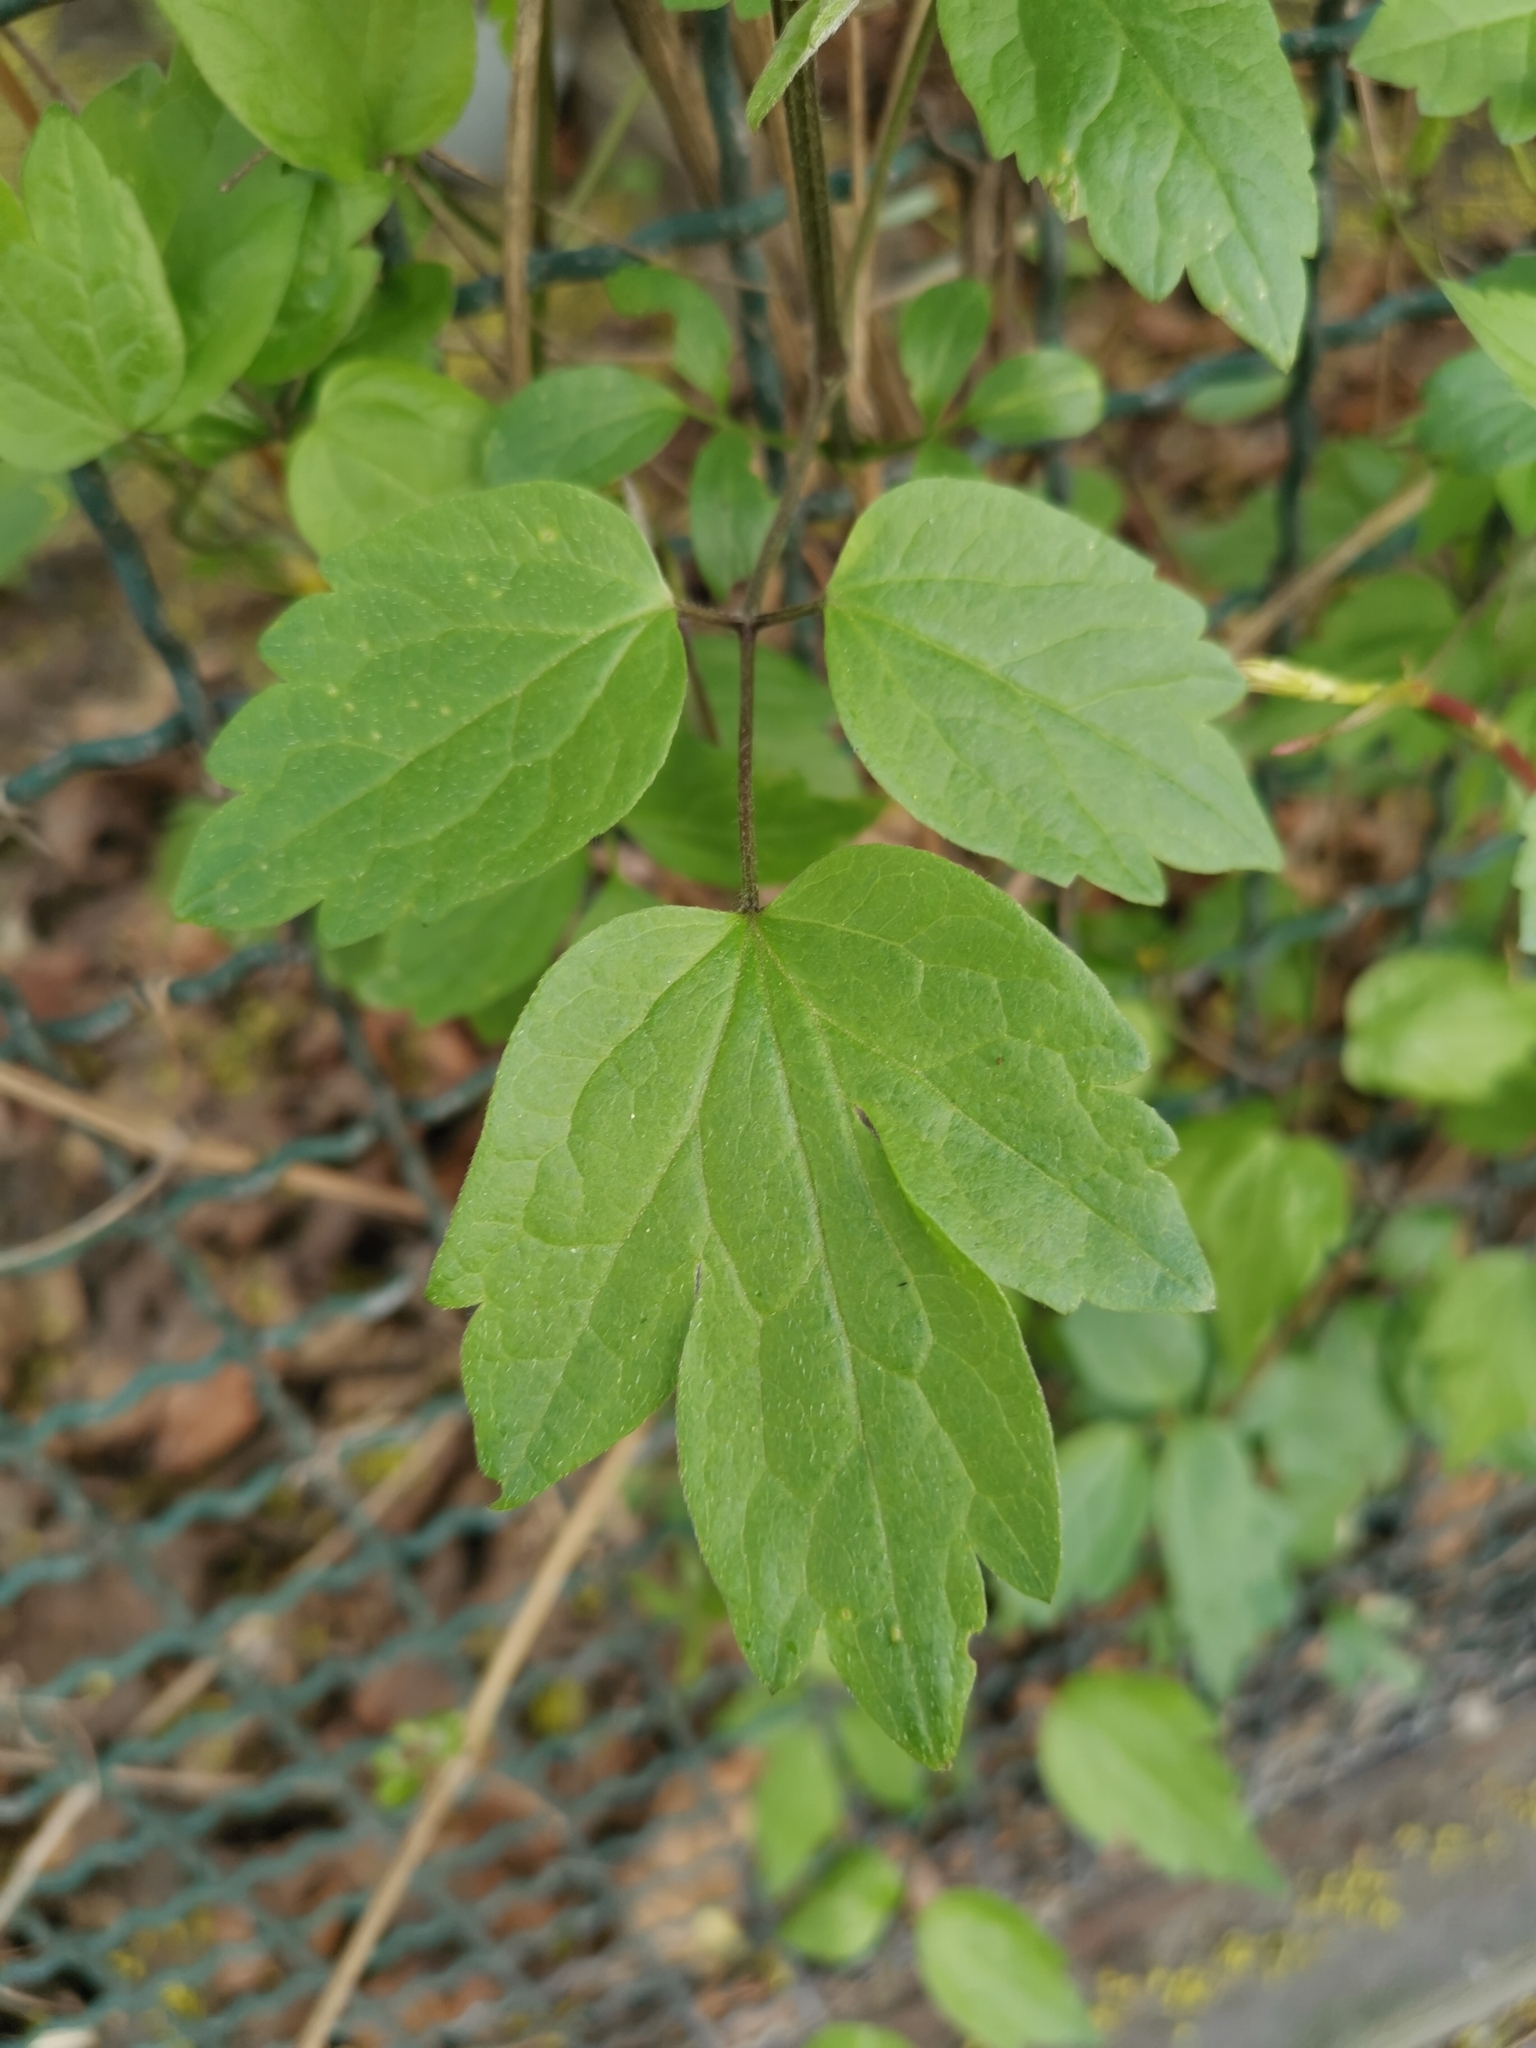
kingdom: Plantae
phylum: Tracheophyta
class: Magnoliopsida
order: Ranunculales
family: Ranunculaceae
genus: Clematis
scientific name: Clematis vitalba
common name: Evergreen clematis
